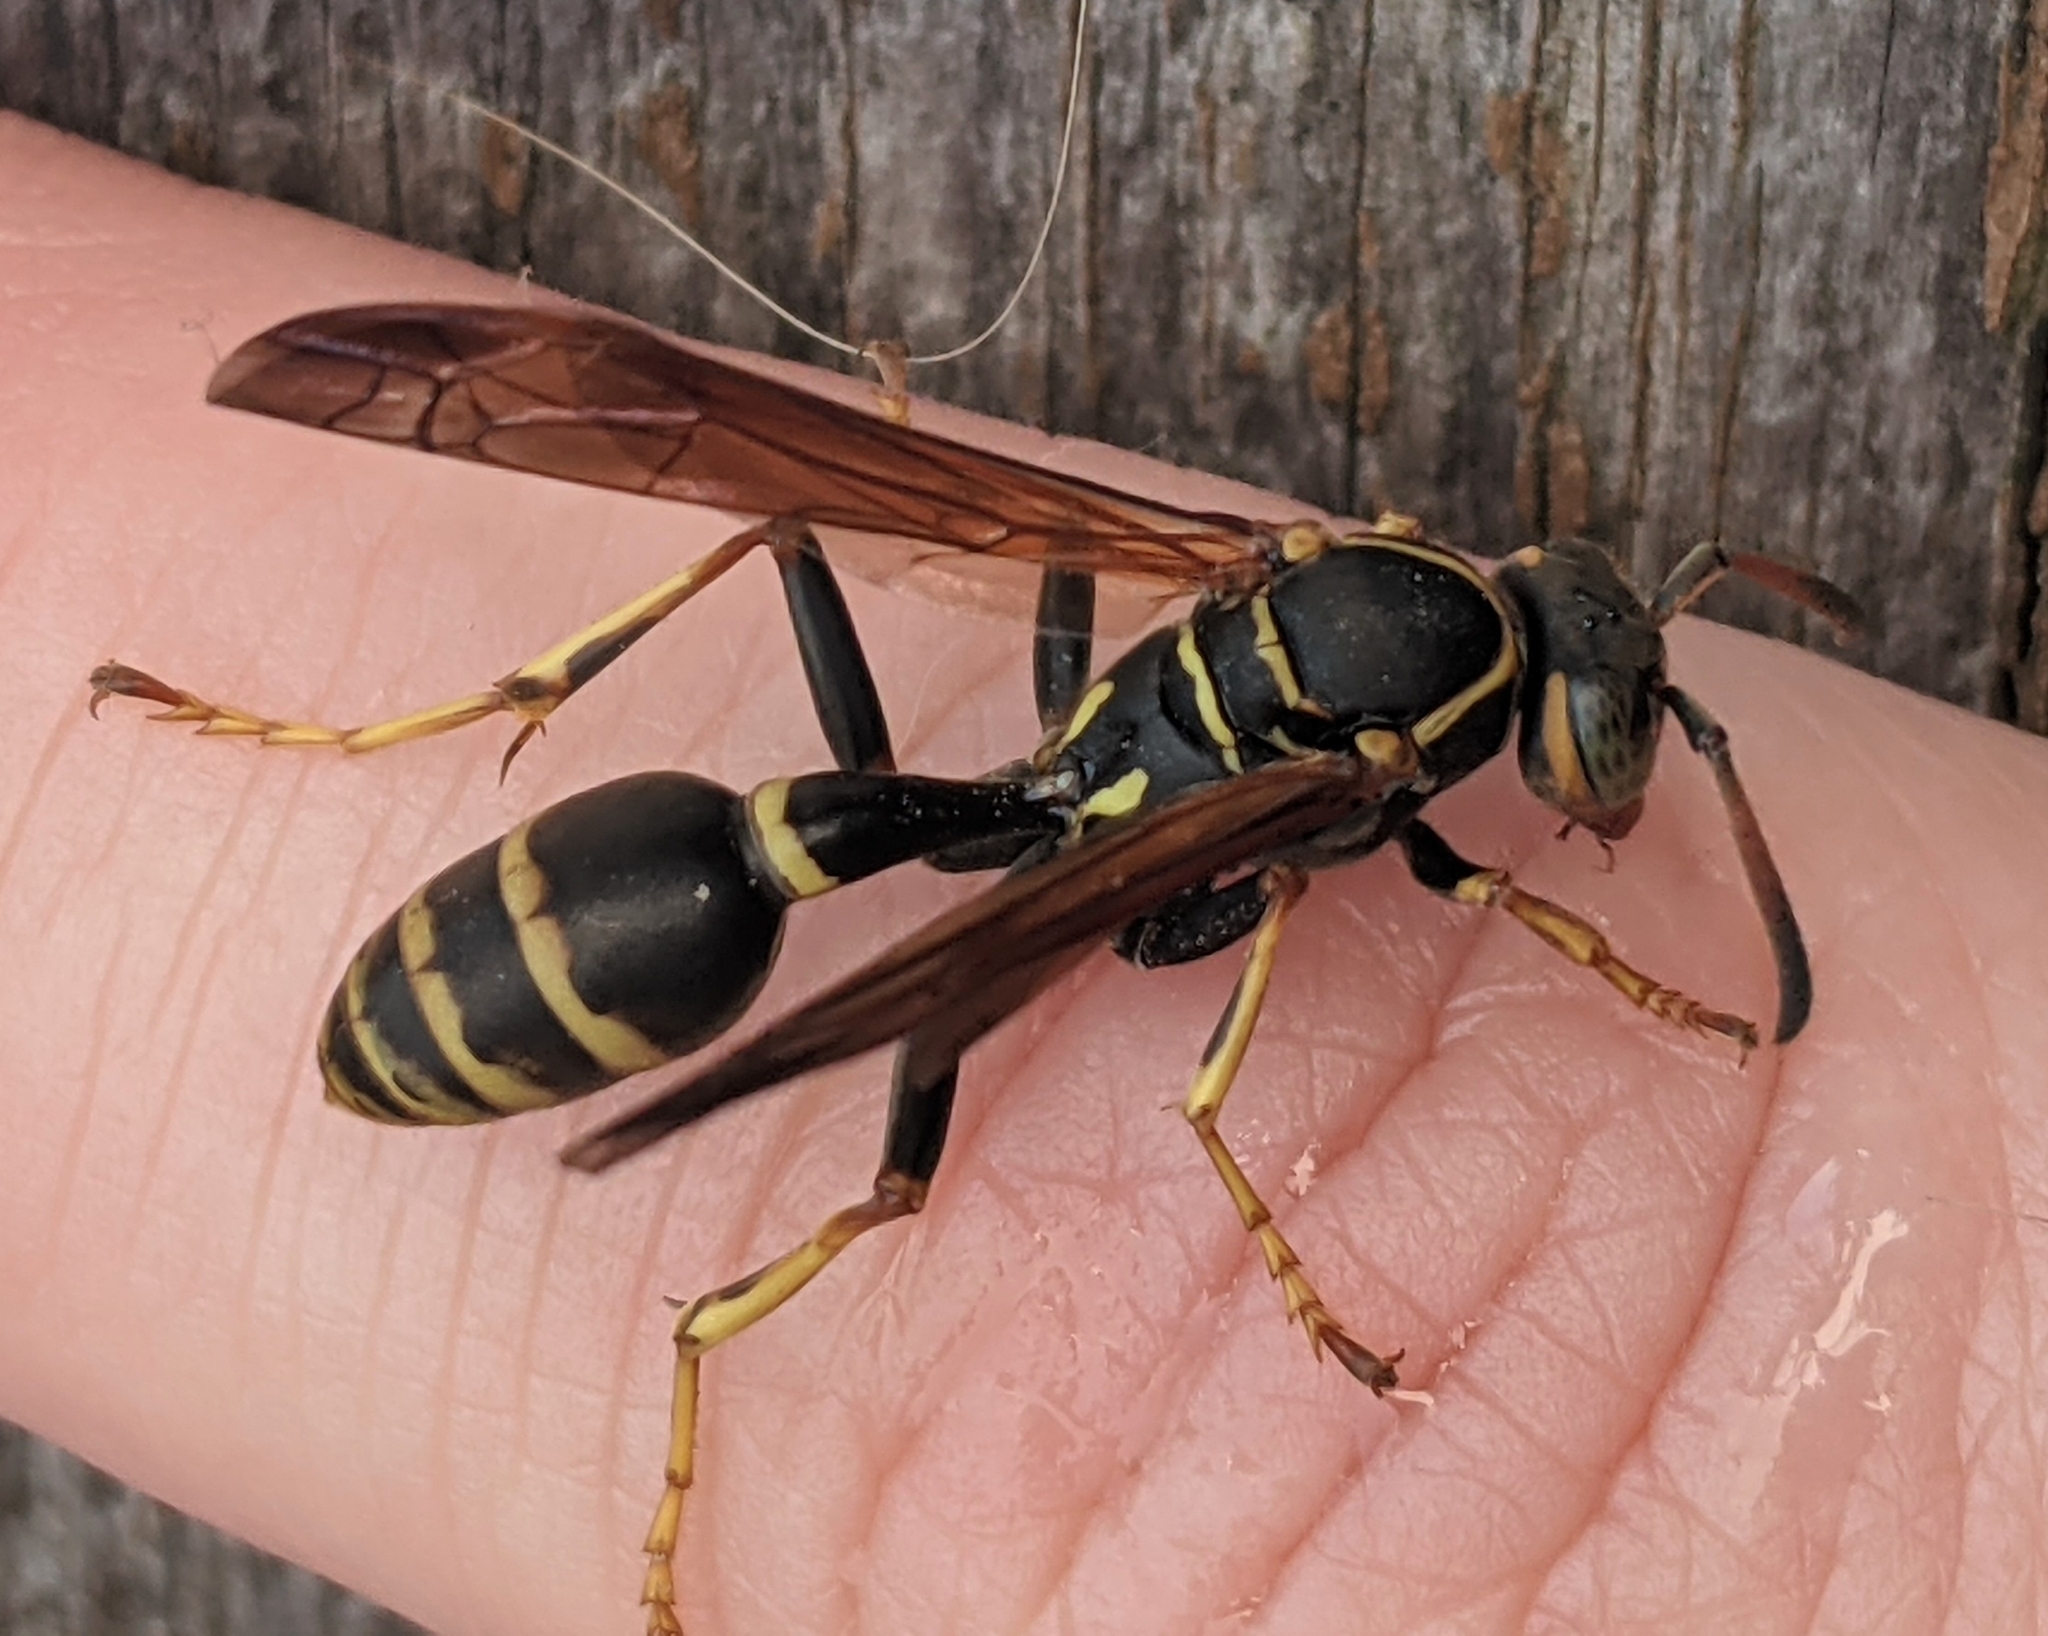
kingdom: Animalia
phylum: Arthropoda
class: Insecta
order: Hymenoptera
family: Vespidae
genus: Mischocyttarus
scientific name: Mischocyttarus flavitarsis
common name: Wasp
